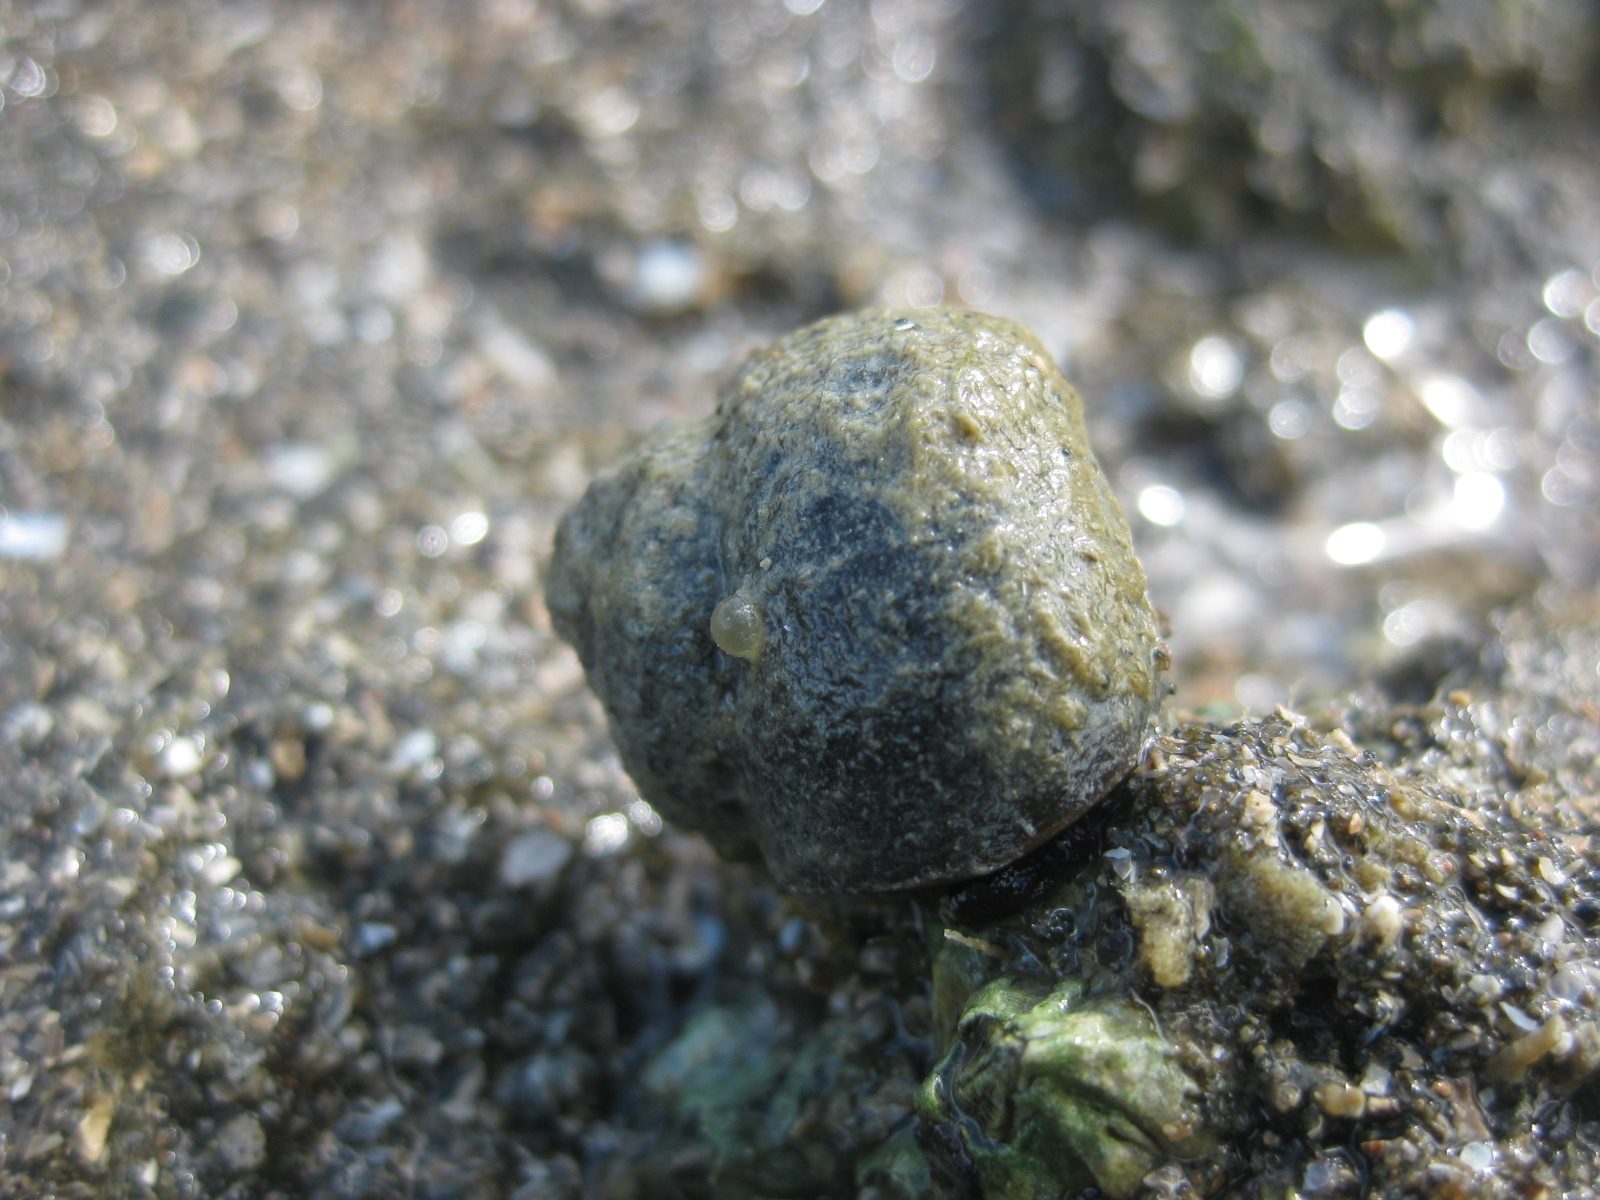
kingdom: Animalia
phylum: Mollusca
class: Gastropoda
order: Trochida
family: Turbinidae
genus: Lunella
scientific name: Lunella smaragda
